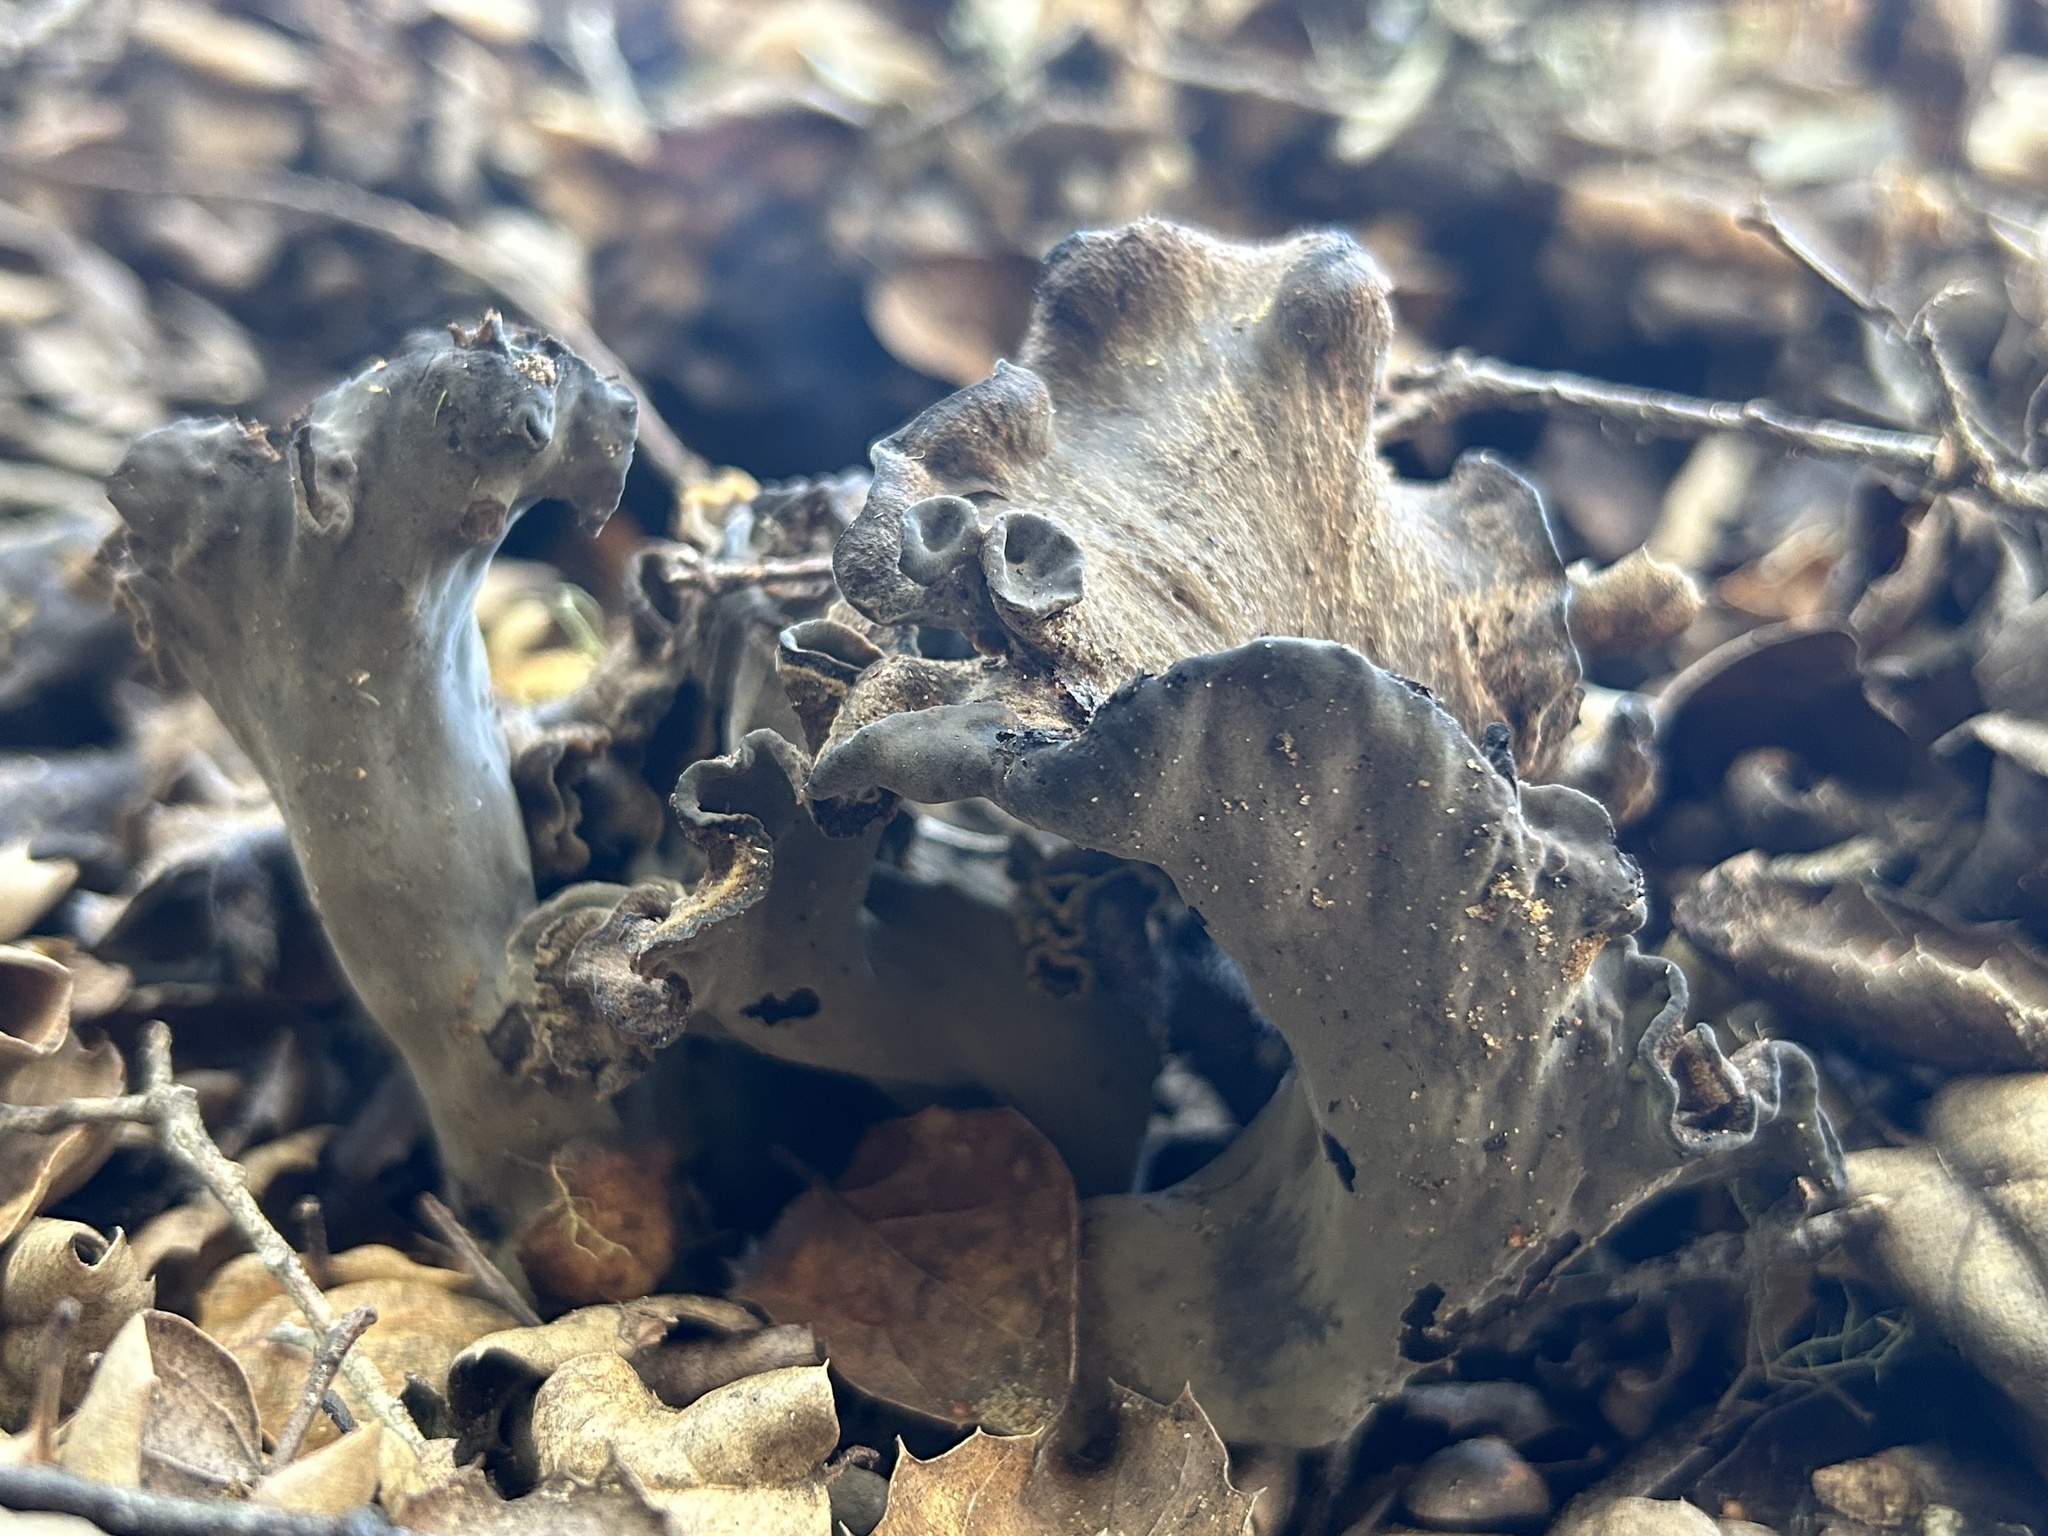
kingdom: Fungi
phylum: Basidiomycota
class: Agaricomycetes
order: Cantharellales
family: Hydnaceae
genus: Craterellus
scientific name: Craterellus calicornucopioides
